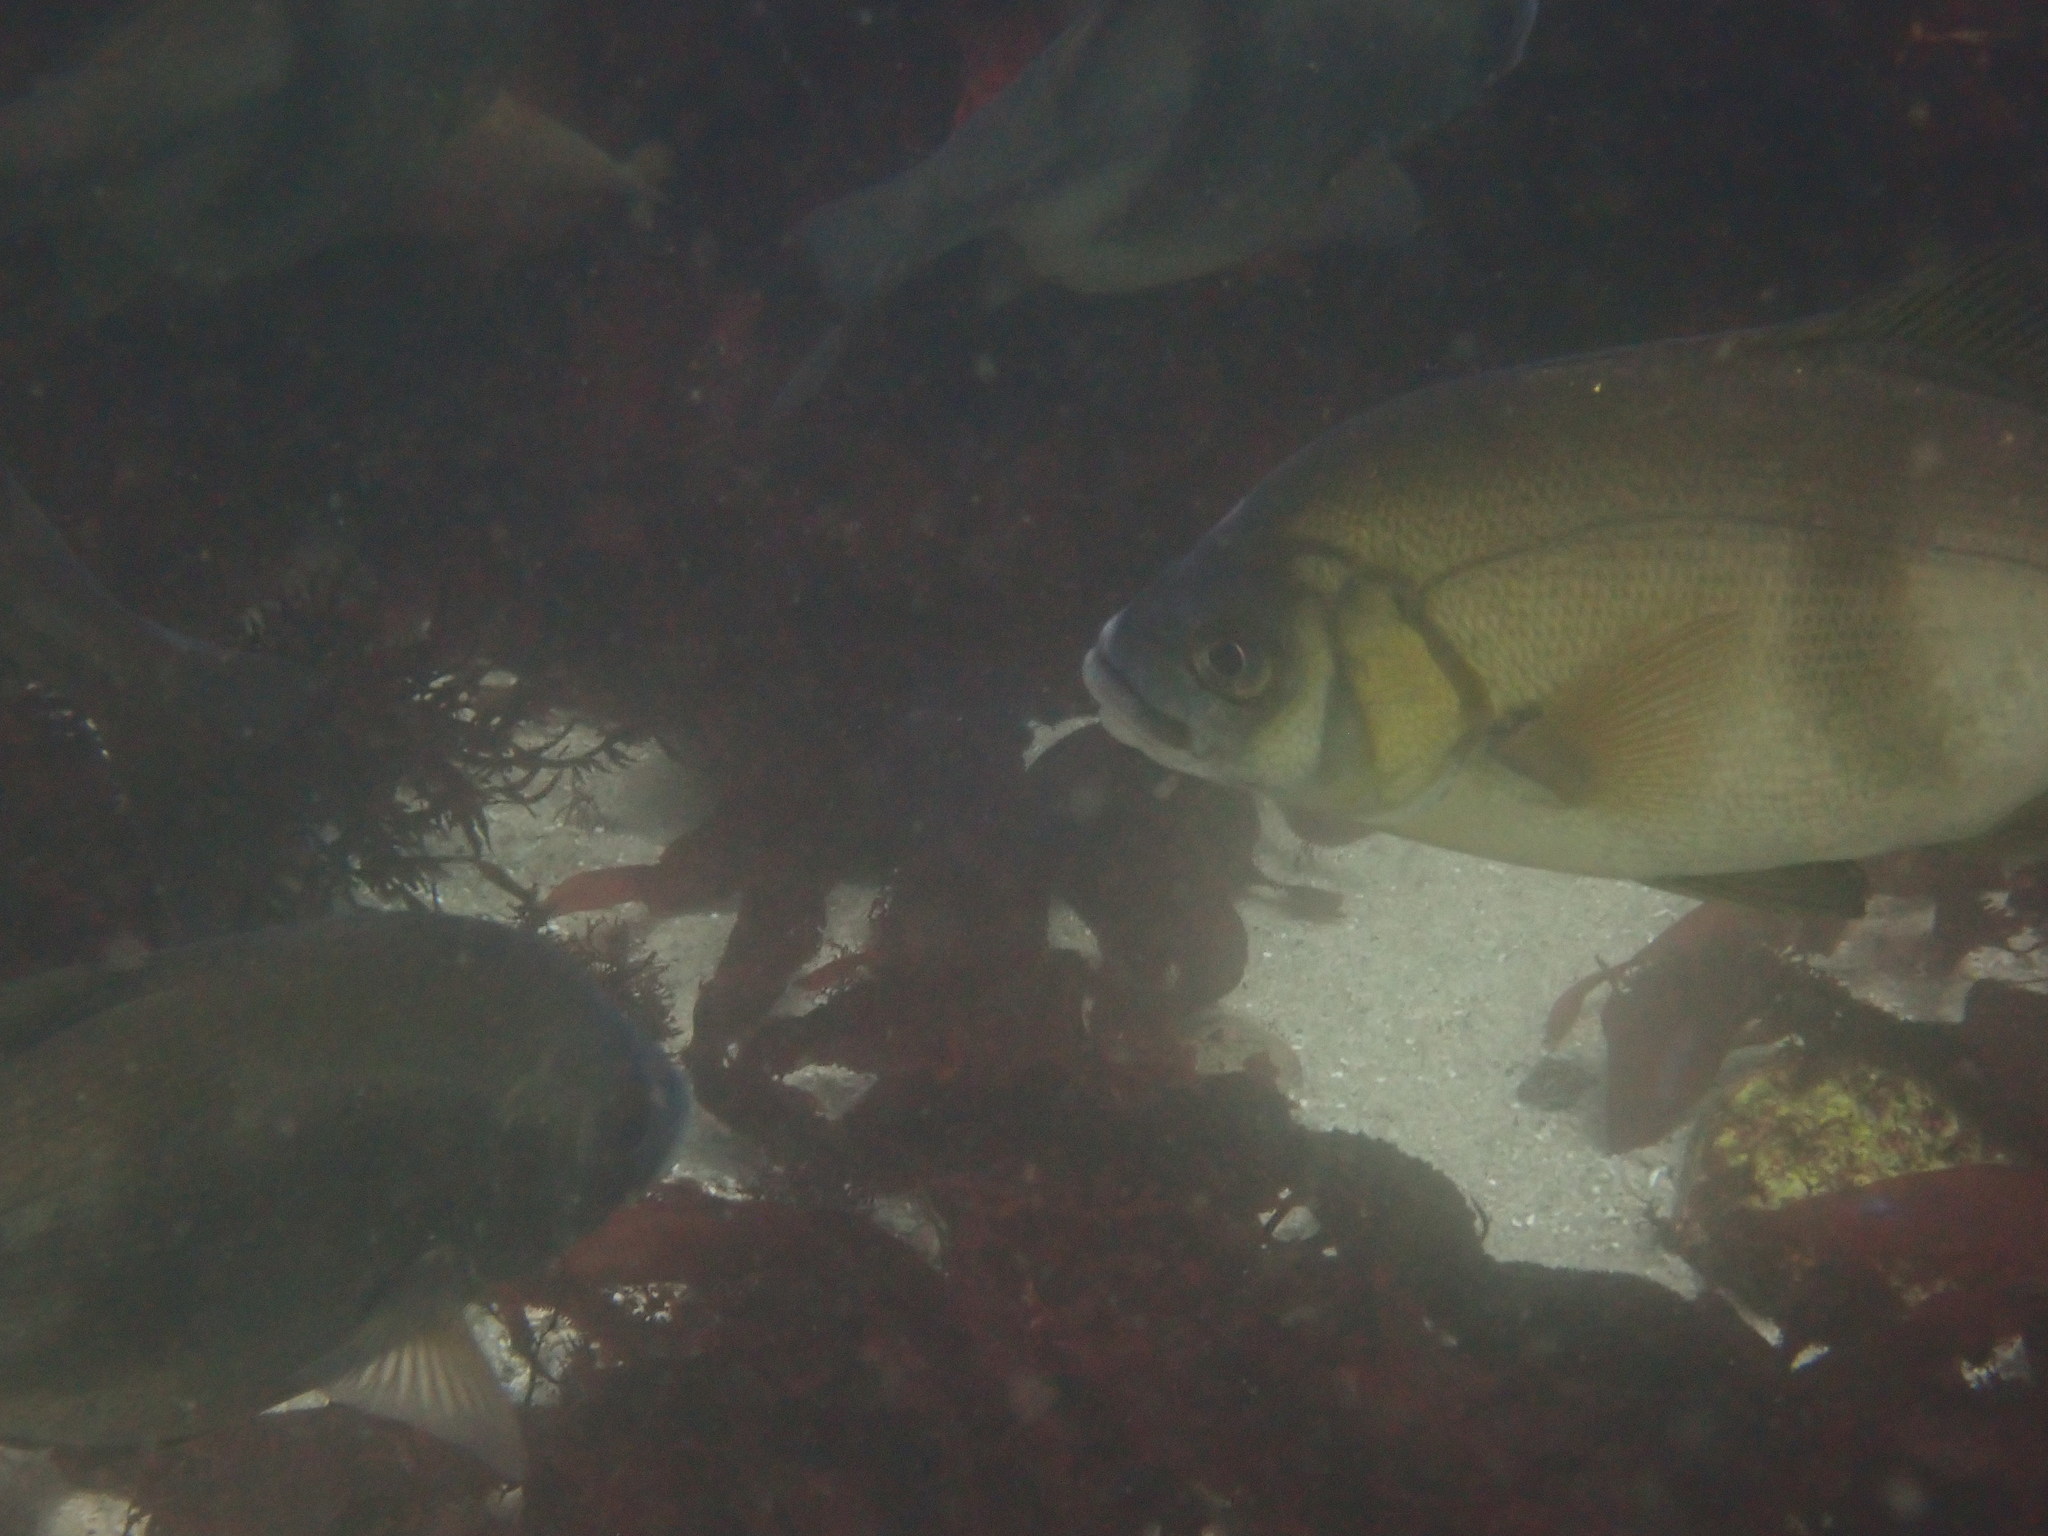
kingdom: Animalia
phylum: Chordata
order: Perciformes
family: Embiotocidae
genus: Rhacochilus
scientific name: Rhacochilus toxotes
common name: Rubberlip seaperch
